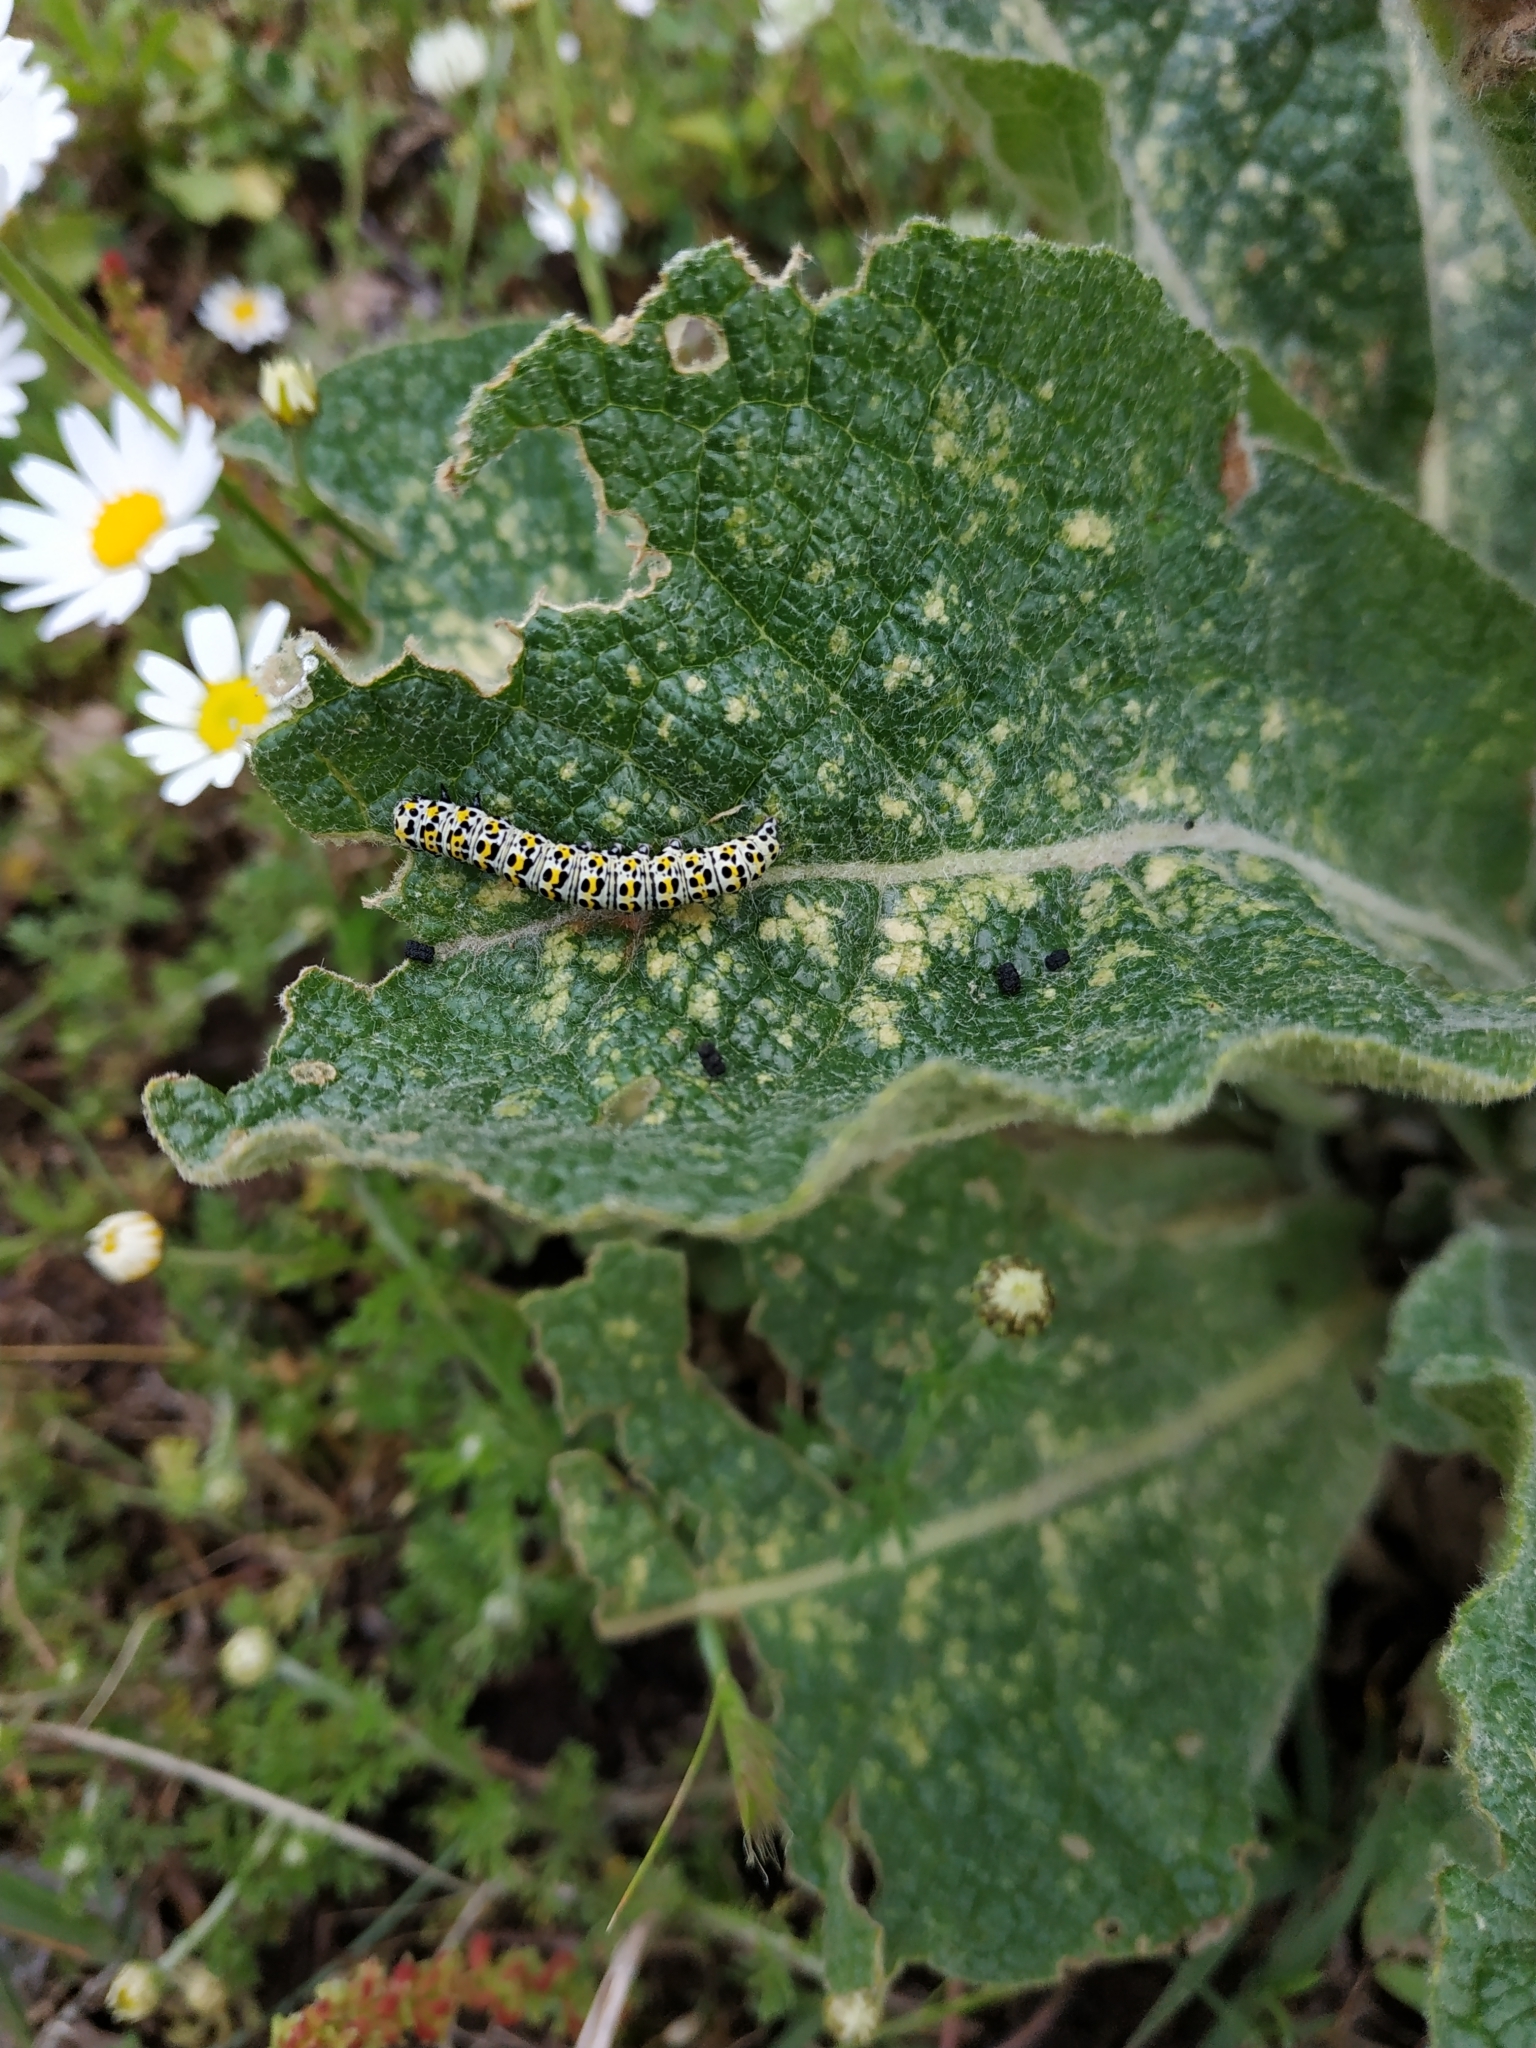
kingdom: Animalia
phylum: Arthropoda
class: Insecta
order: Lepidoptera
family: Noctuidae
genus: Cucullia
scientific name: Cucullia verbasci
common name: Mullein
